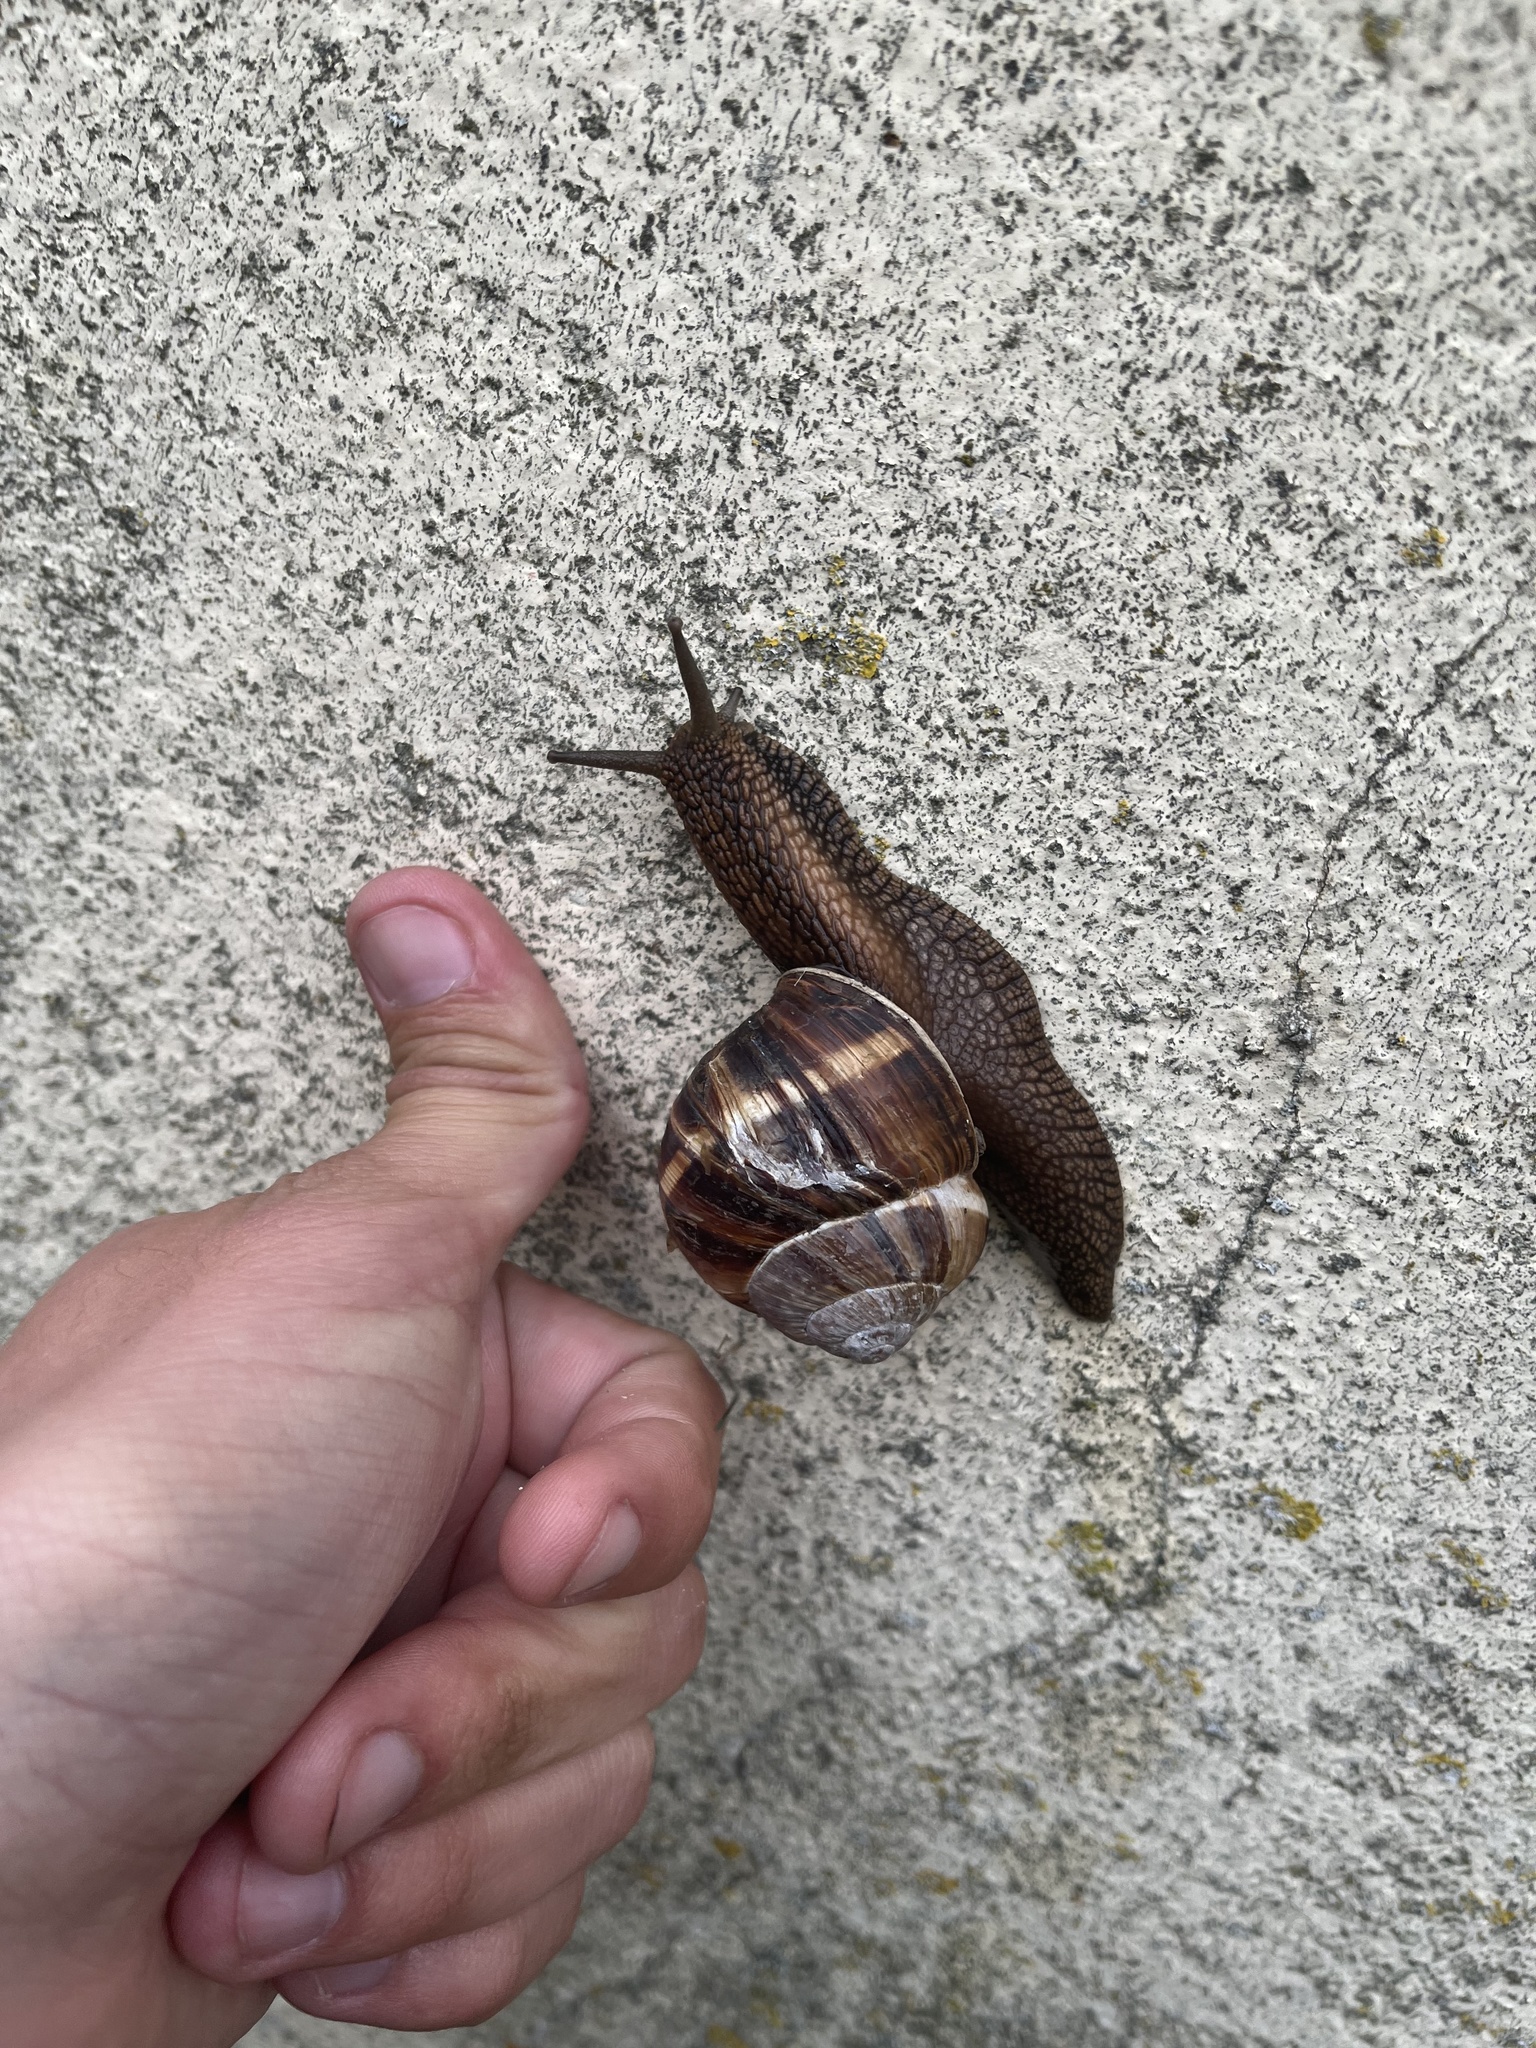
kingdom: Animalia
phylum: Mollusca
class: Gastropoda
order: Stylommatophora
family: Helicidae
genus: Helix
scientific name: Helix lucorum
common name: Turkish snail
